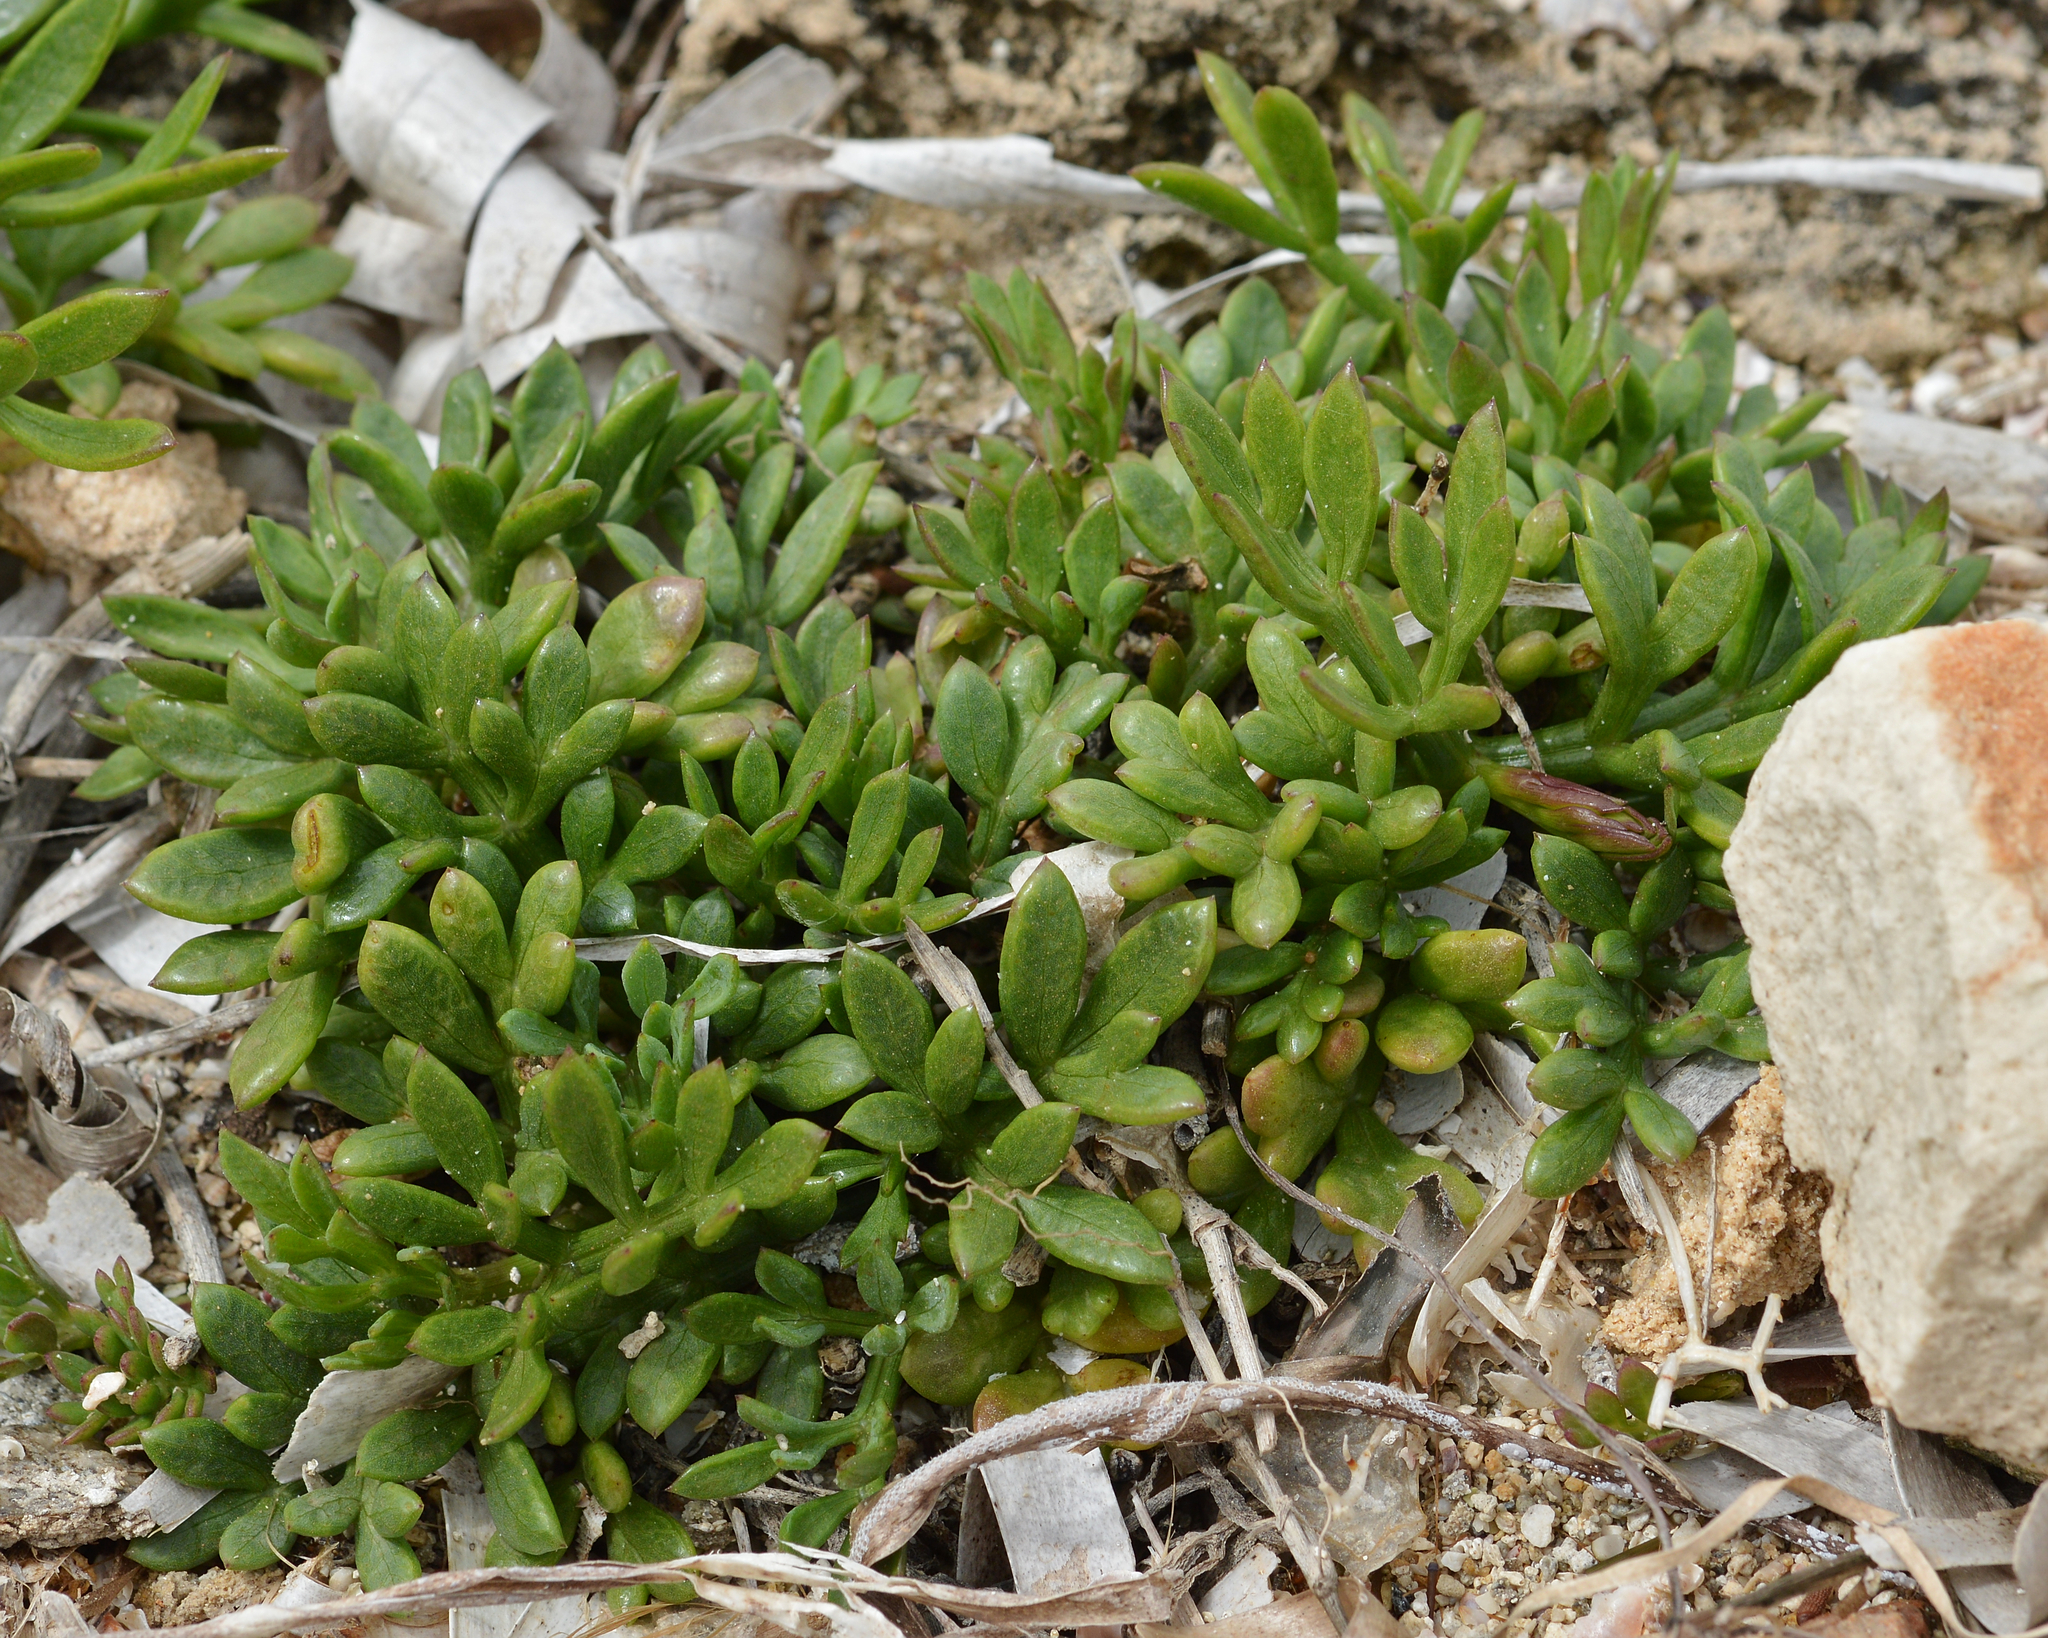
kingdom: Plantae
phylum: Tracheophyta
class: Magnoliopsida
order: Apiales
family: Apiaceae
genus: Crithmum
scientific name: Crithmum maritimum
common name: Rock samphire
